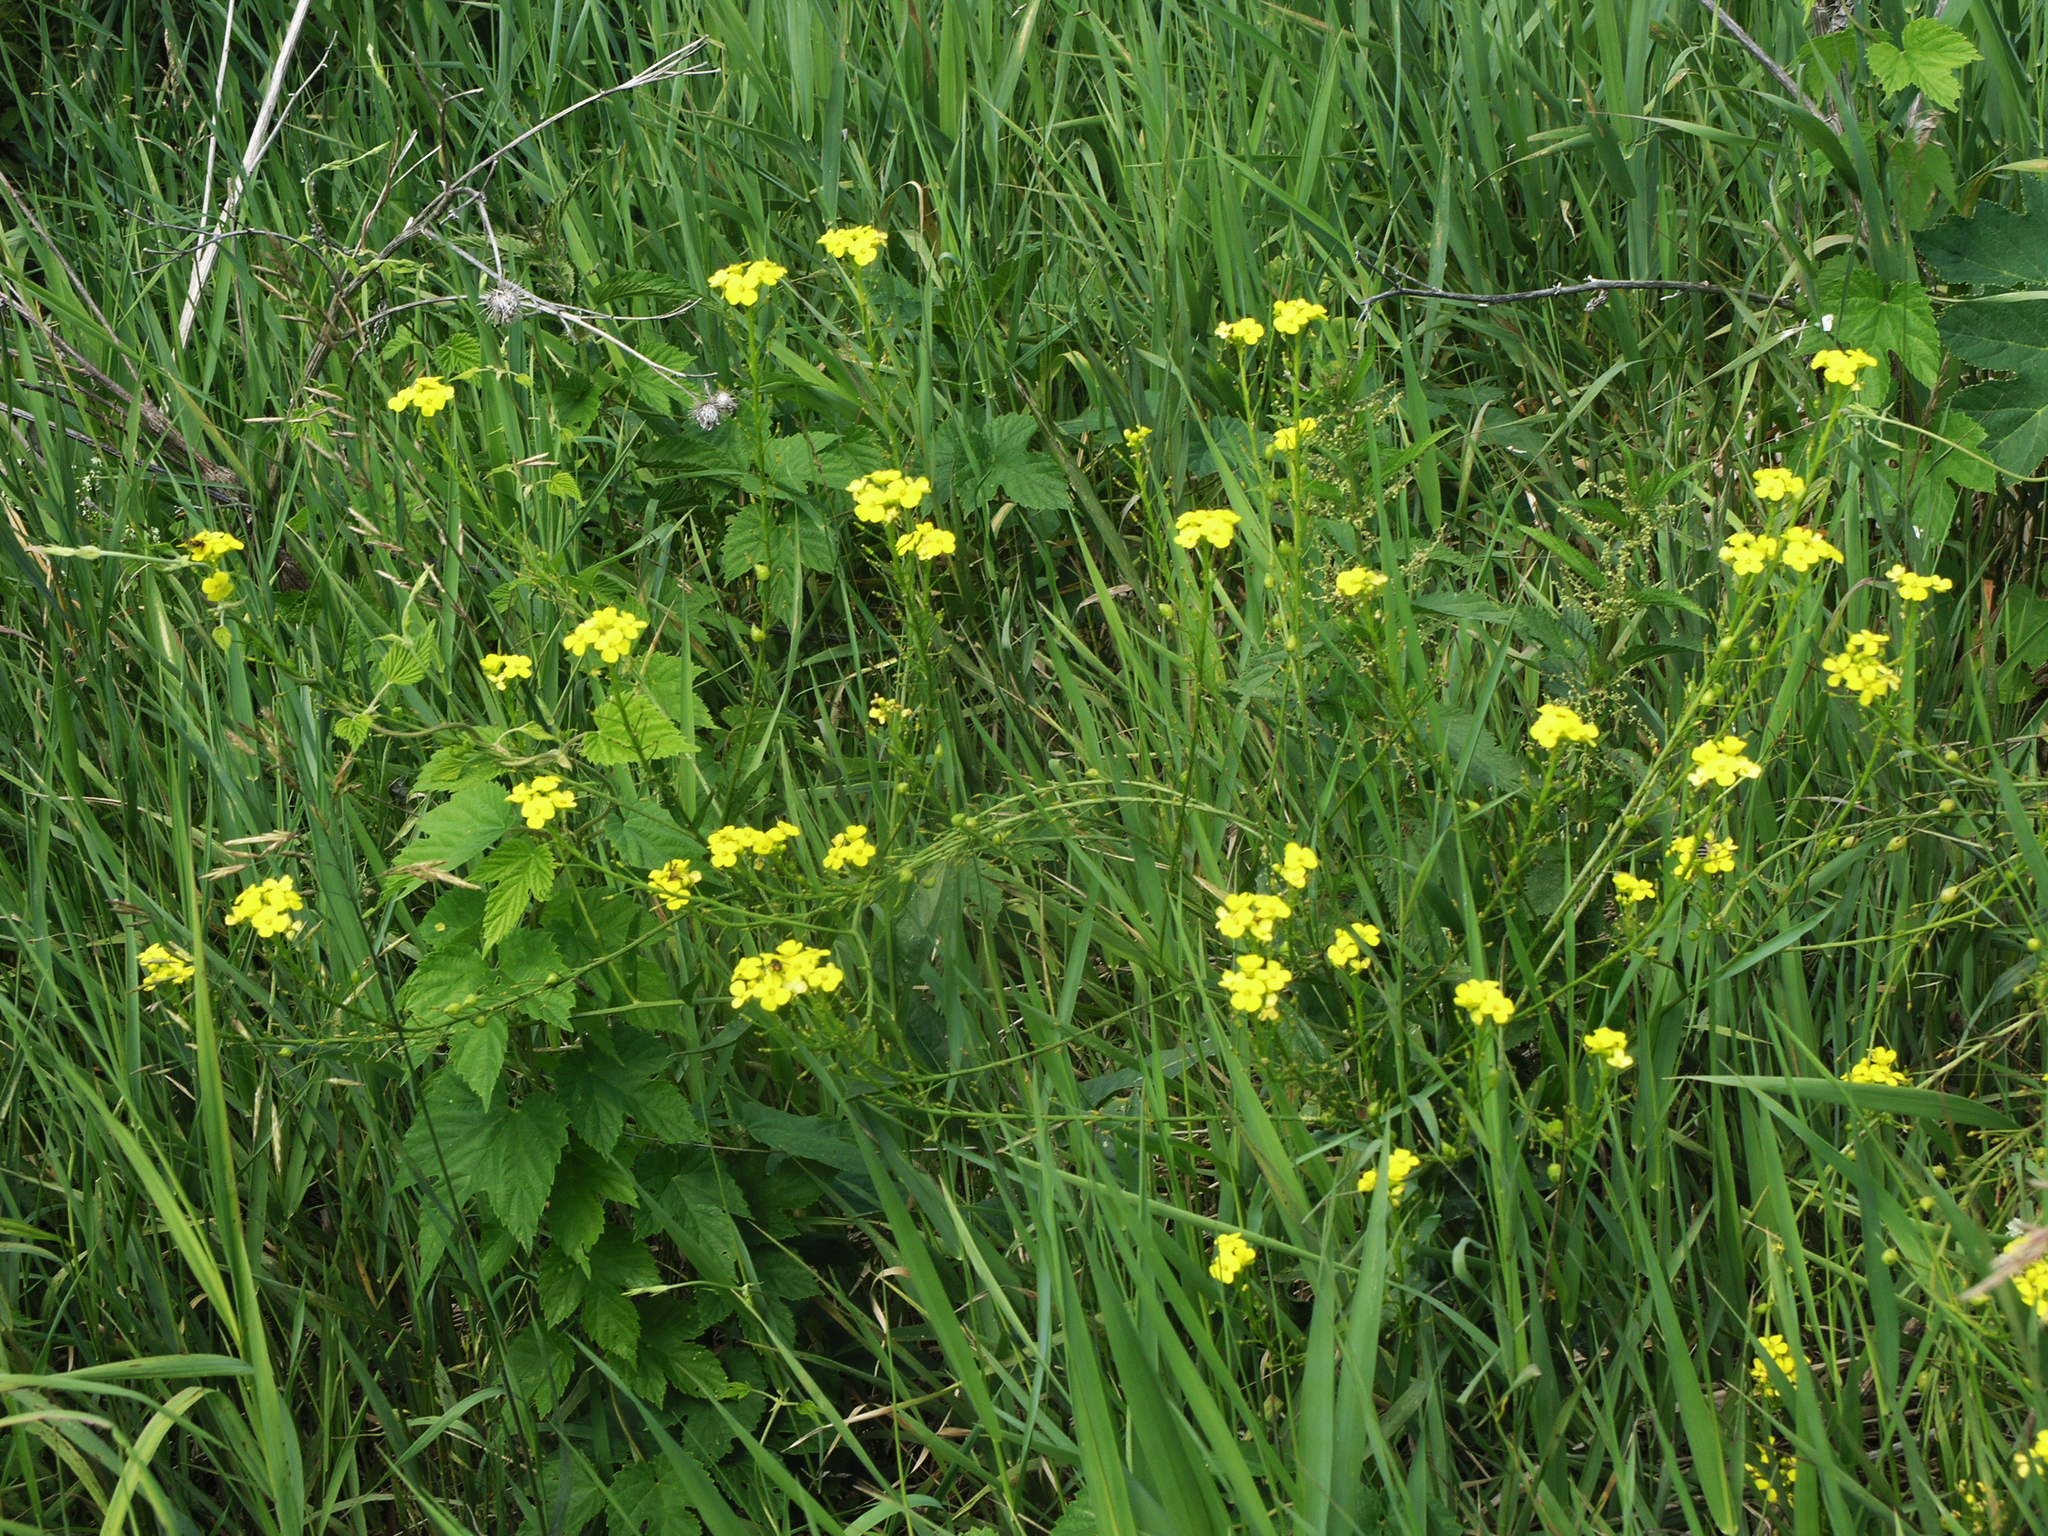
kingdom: Plantae
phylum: Tracheophyta
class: Magnoliopsida
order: Brassicales
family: Brassicaceae
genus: Bunias
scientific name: Bunias orientalis
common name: Warty-cabbage
